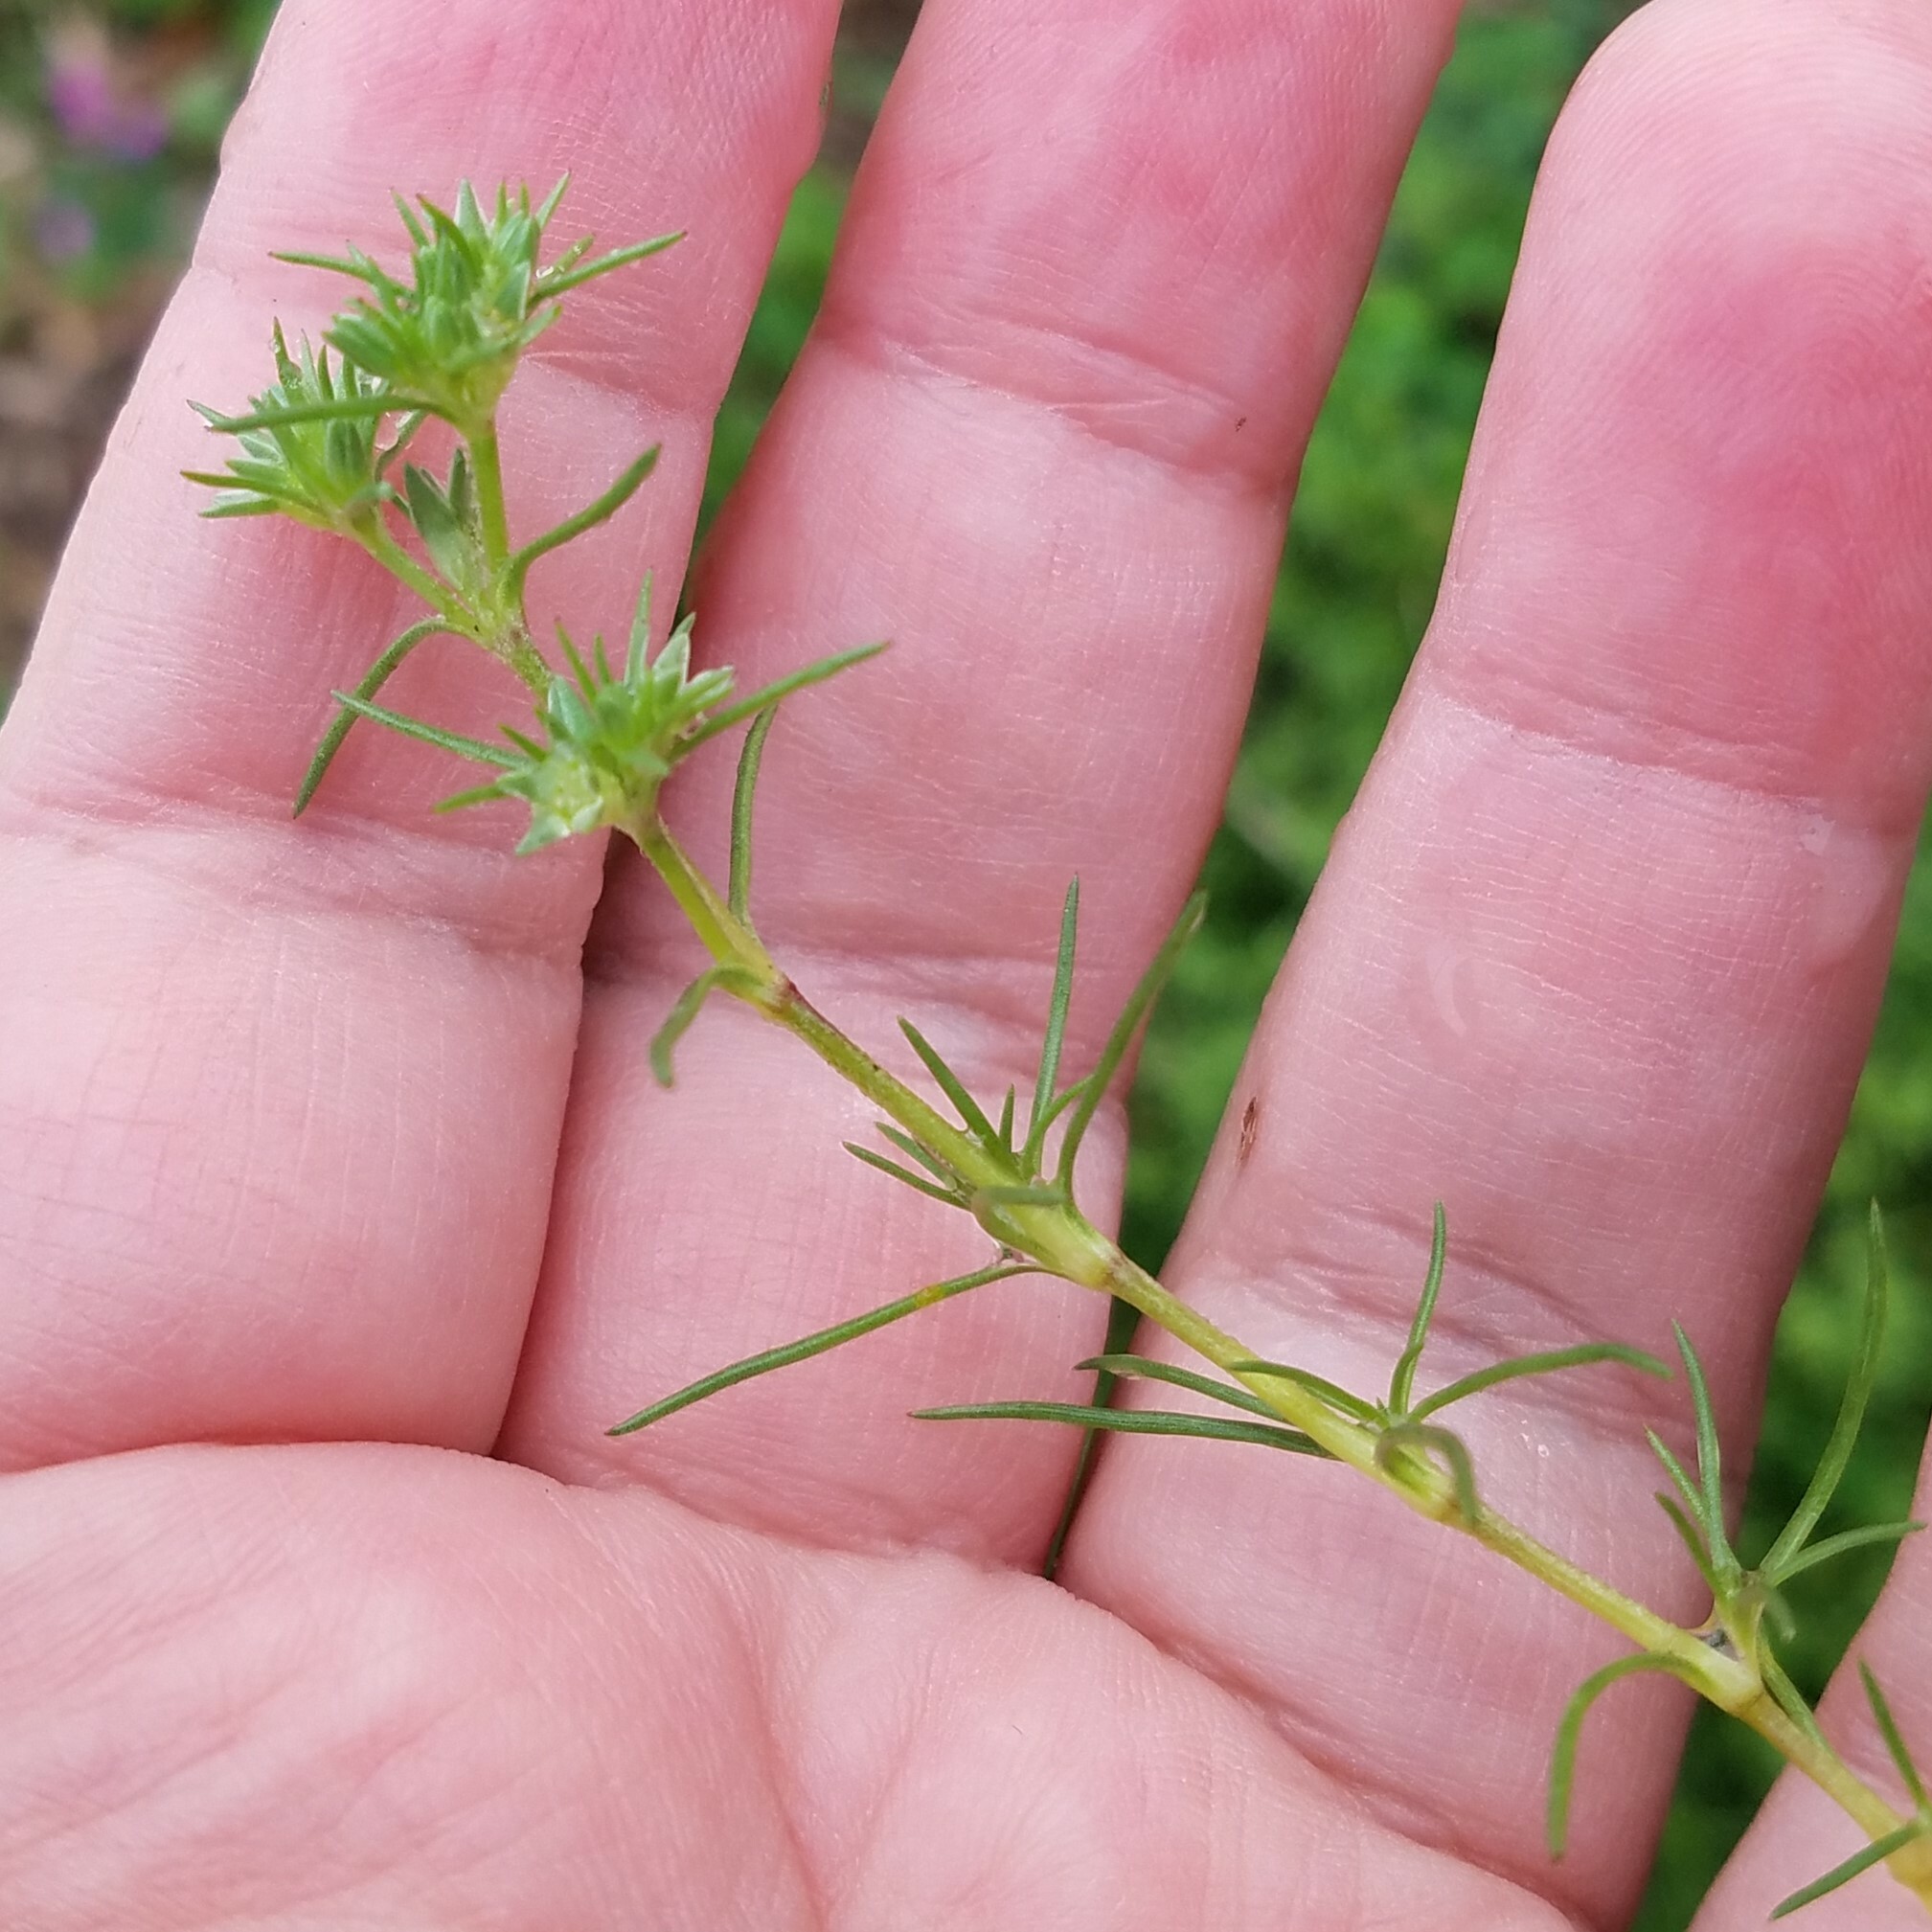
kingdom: Plantae
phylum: Tracheophyta
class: Magnoliopsida
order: Caryophyllales
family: Caryophyllaceae
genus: Scleranthus
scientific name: Scleranthus annuus
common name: Annual knawel
